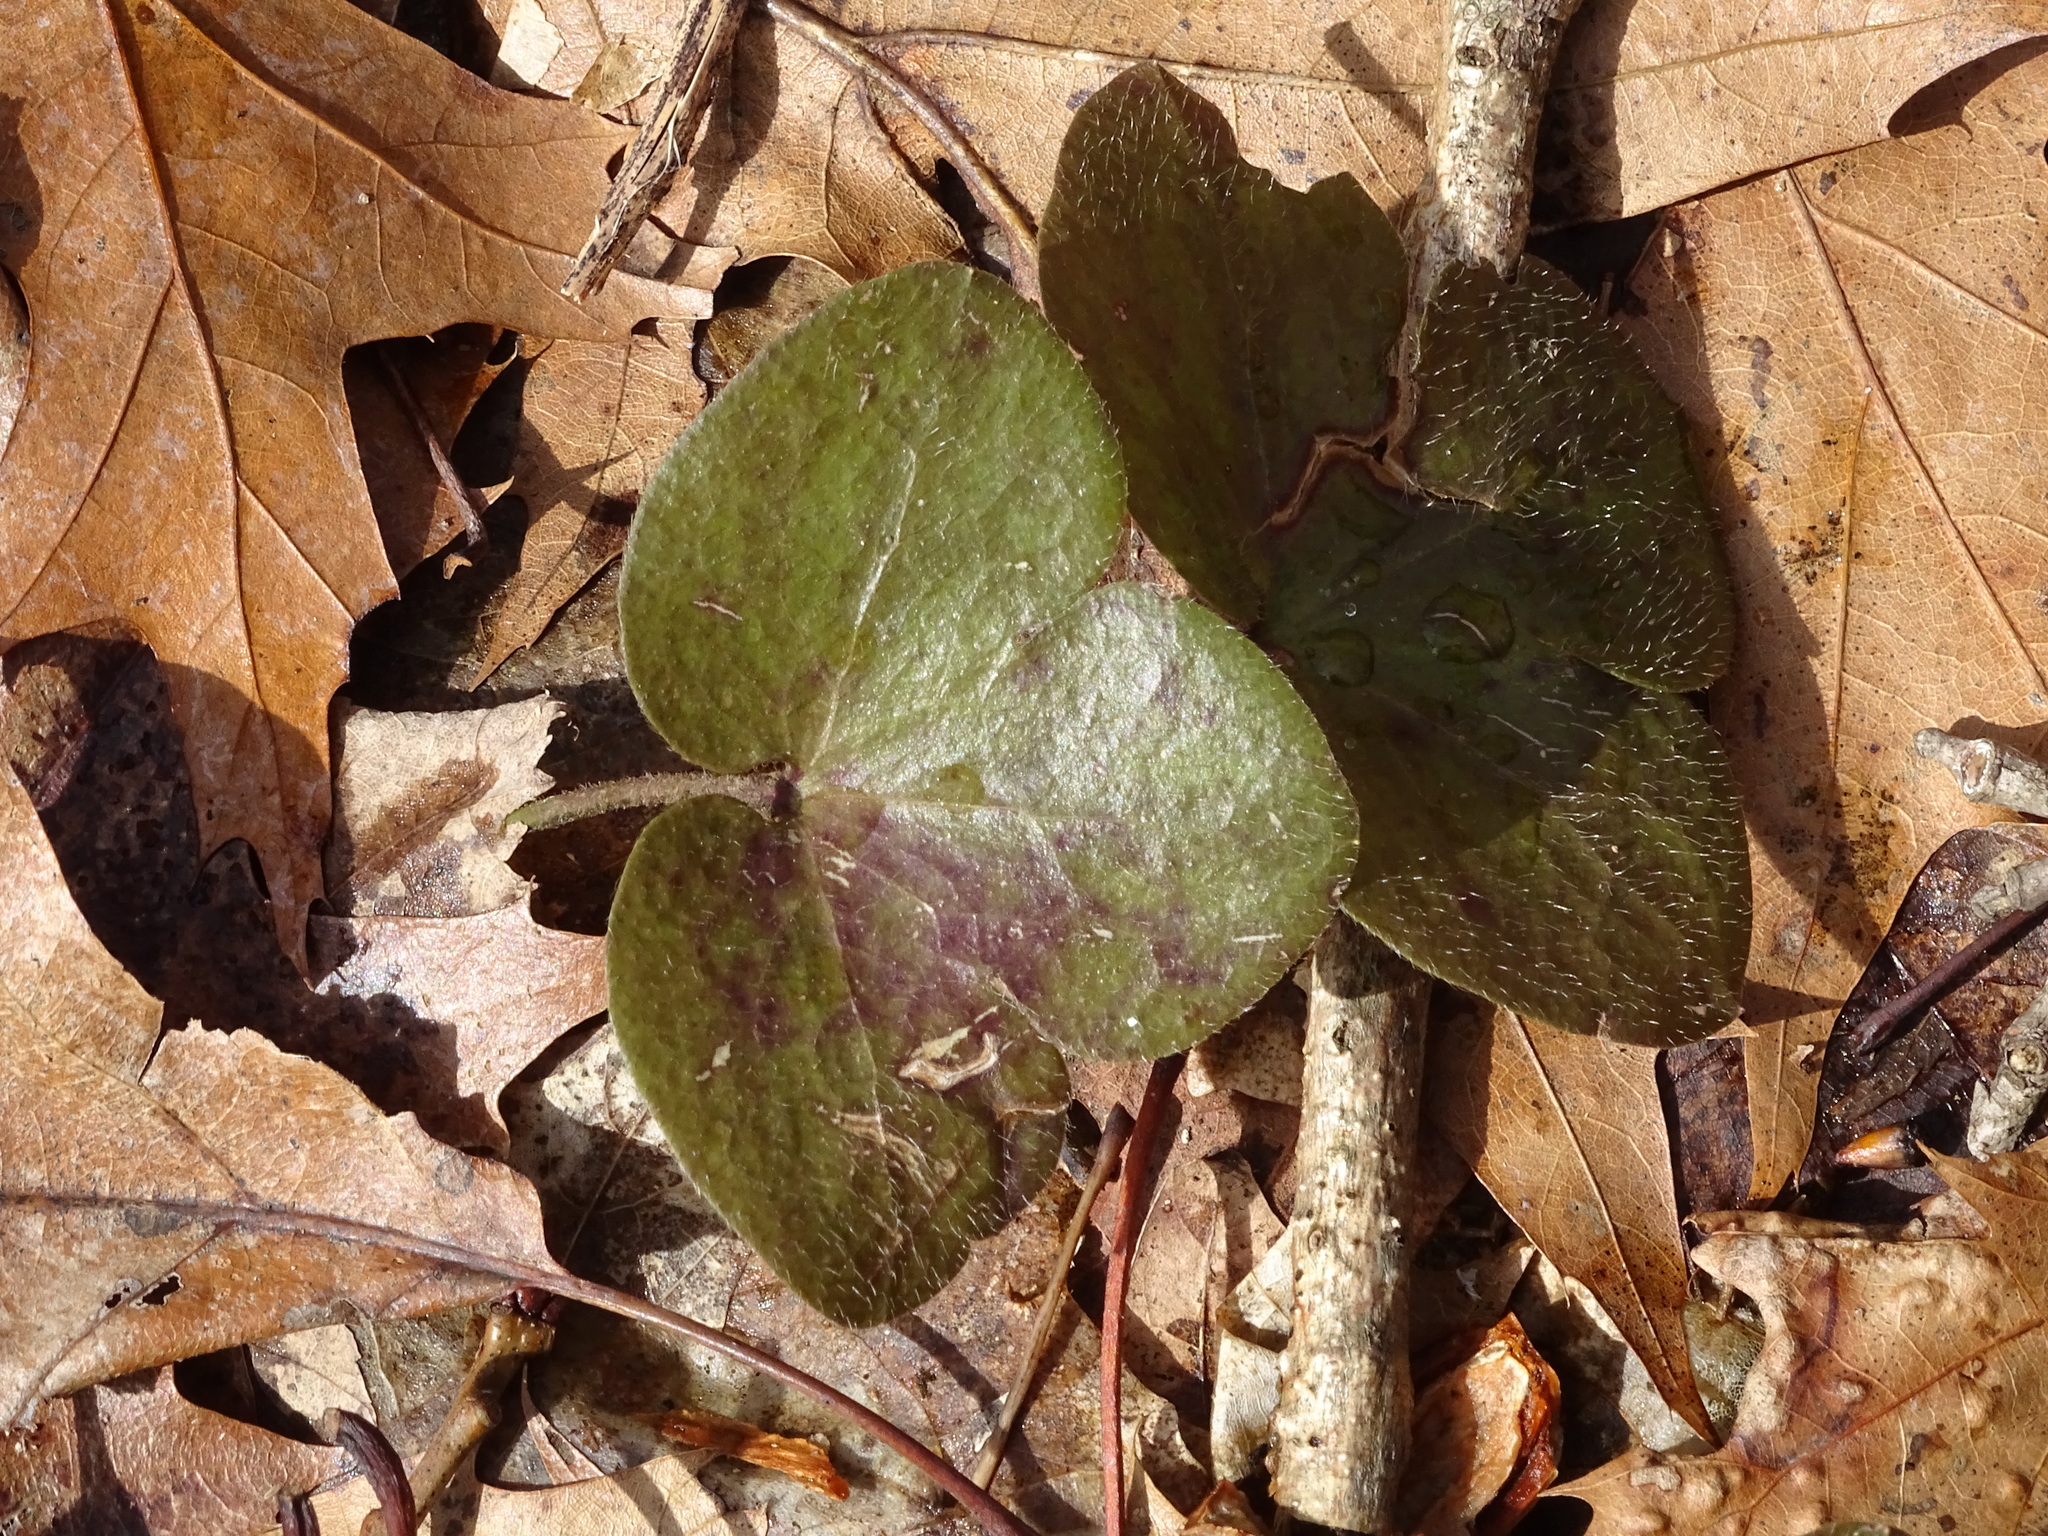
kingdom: Plantae
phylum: Tracheophyta
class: Magnoliopsida
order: Ranunculales
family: Ranunculaceae
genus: Hepatica
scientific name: Hepatica americana
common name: American hepatica
